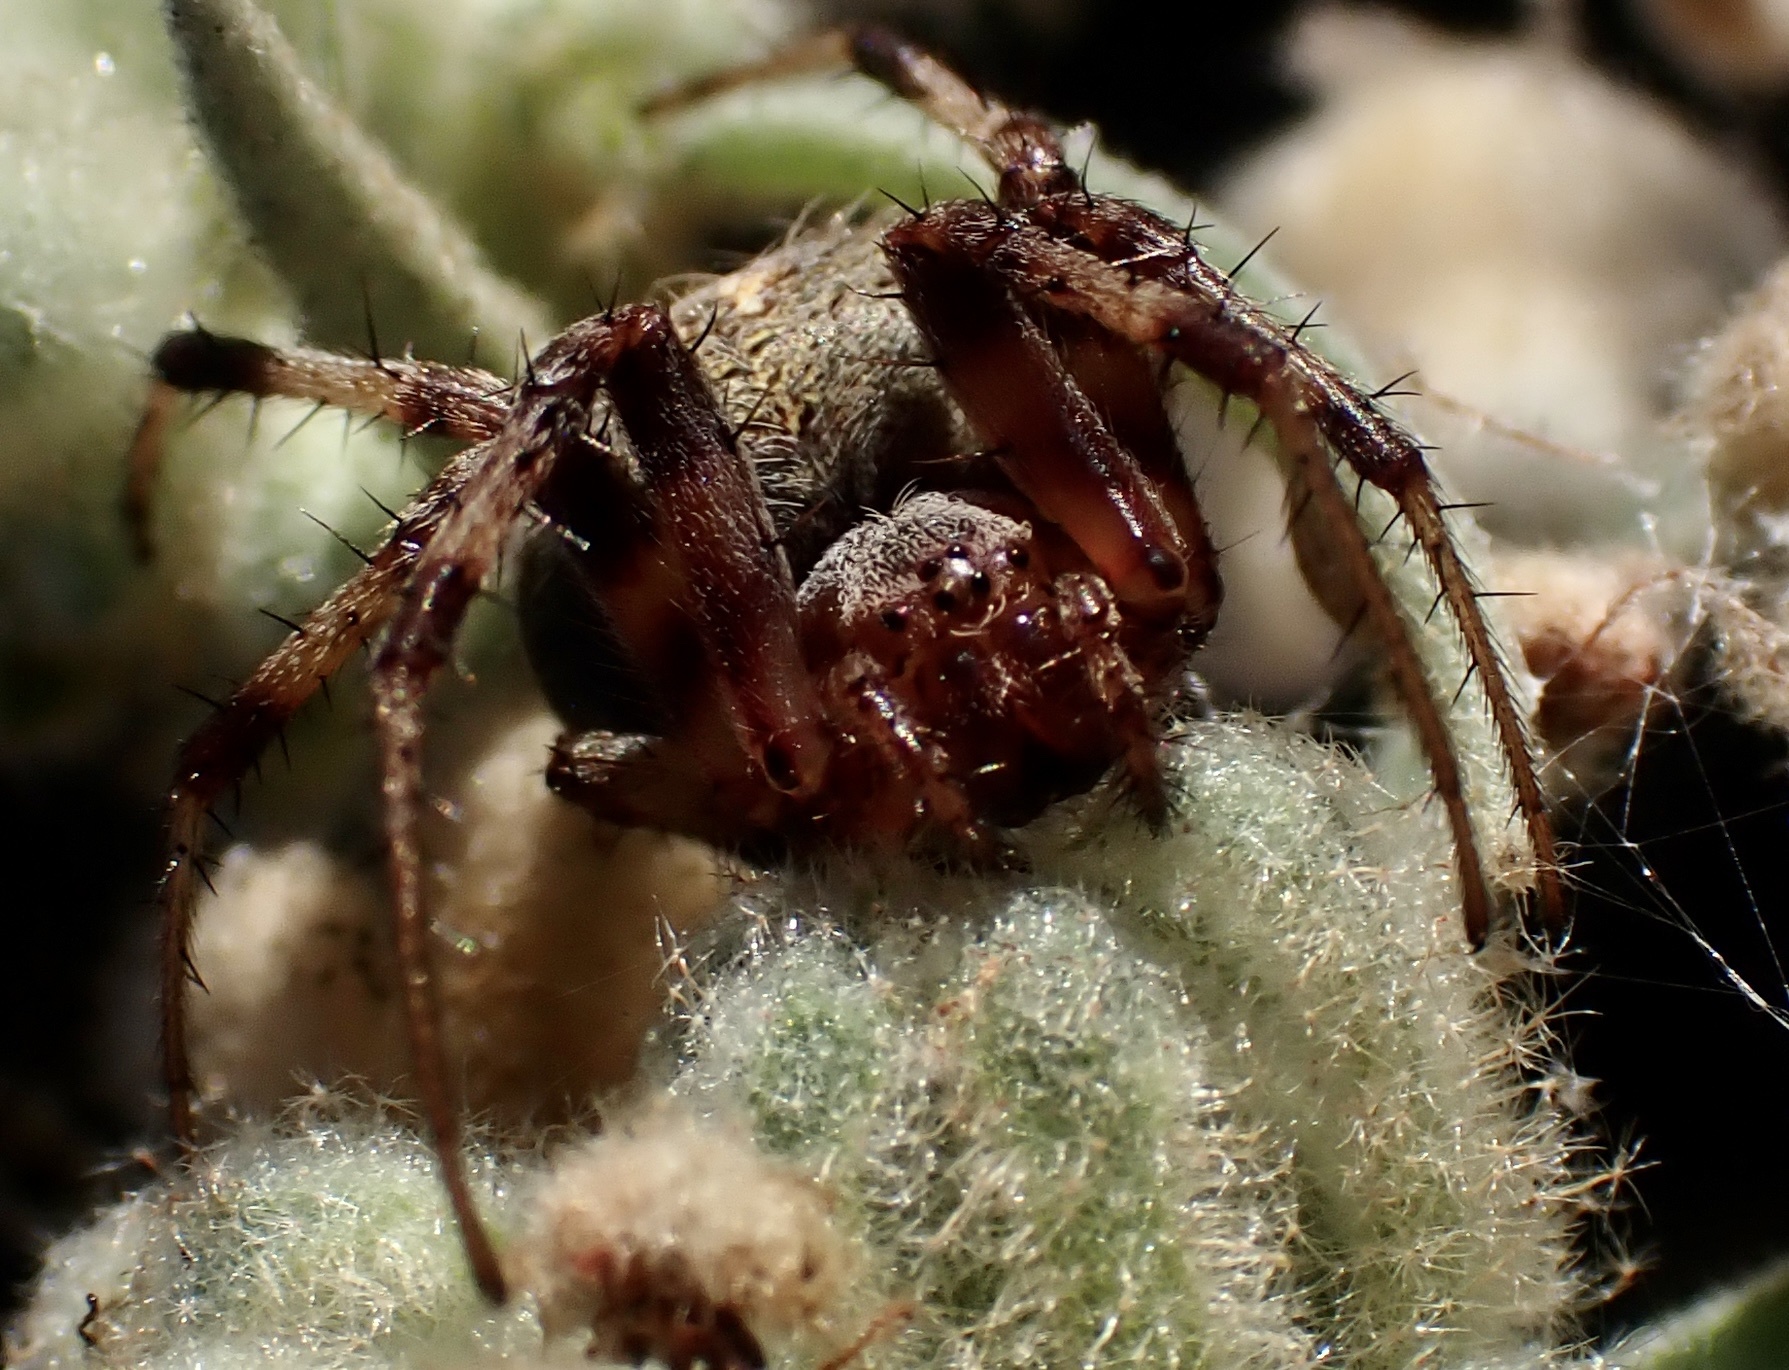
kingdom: Animalia
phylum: Arthropoda
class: Arachnida
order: Araneae
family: Araneidae
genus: Neoscona
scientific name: Neoscona arabesca
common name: Orb weavers
